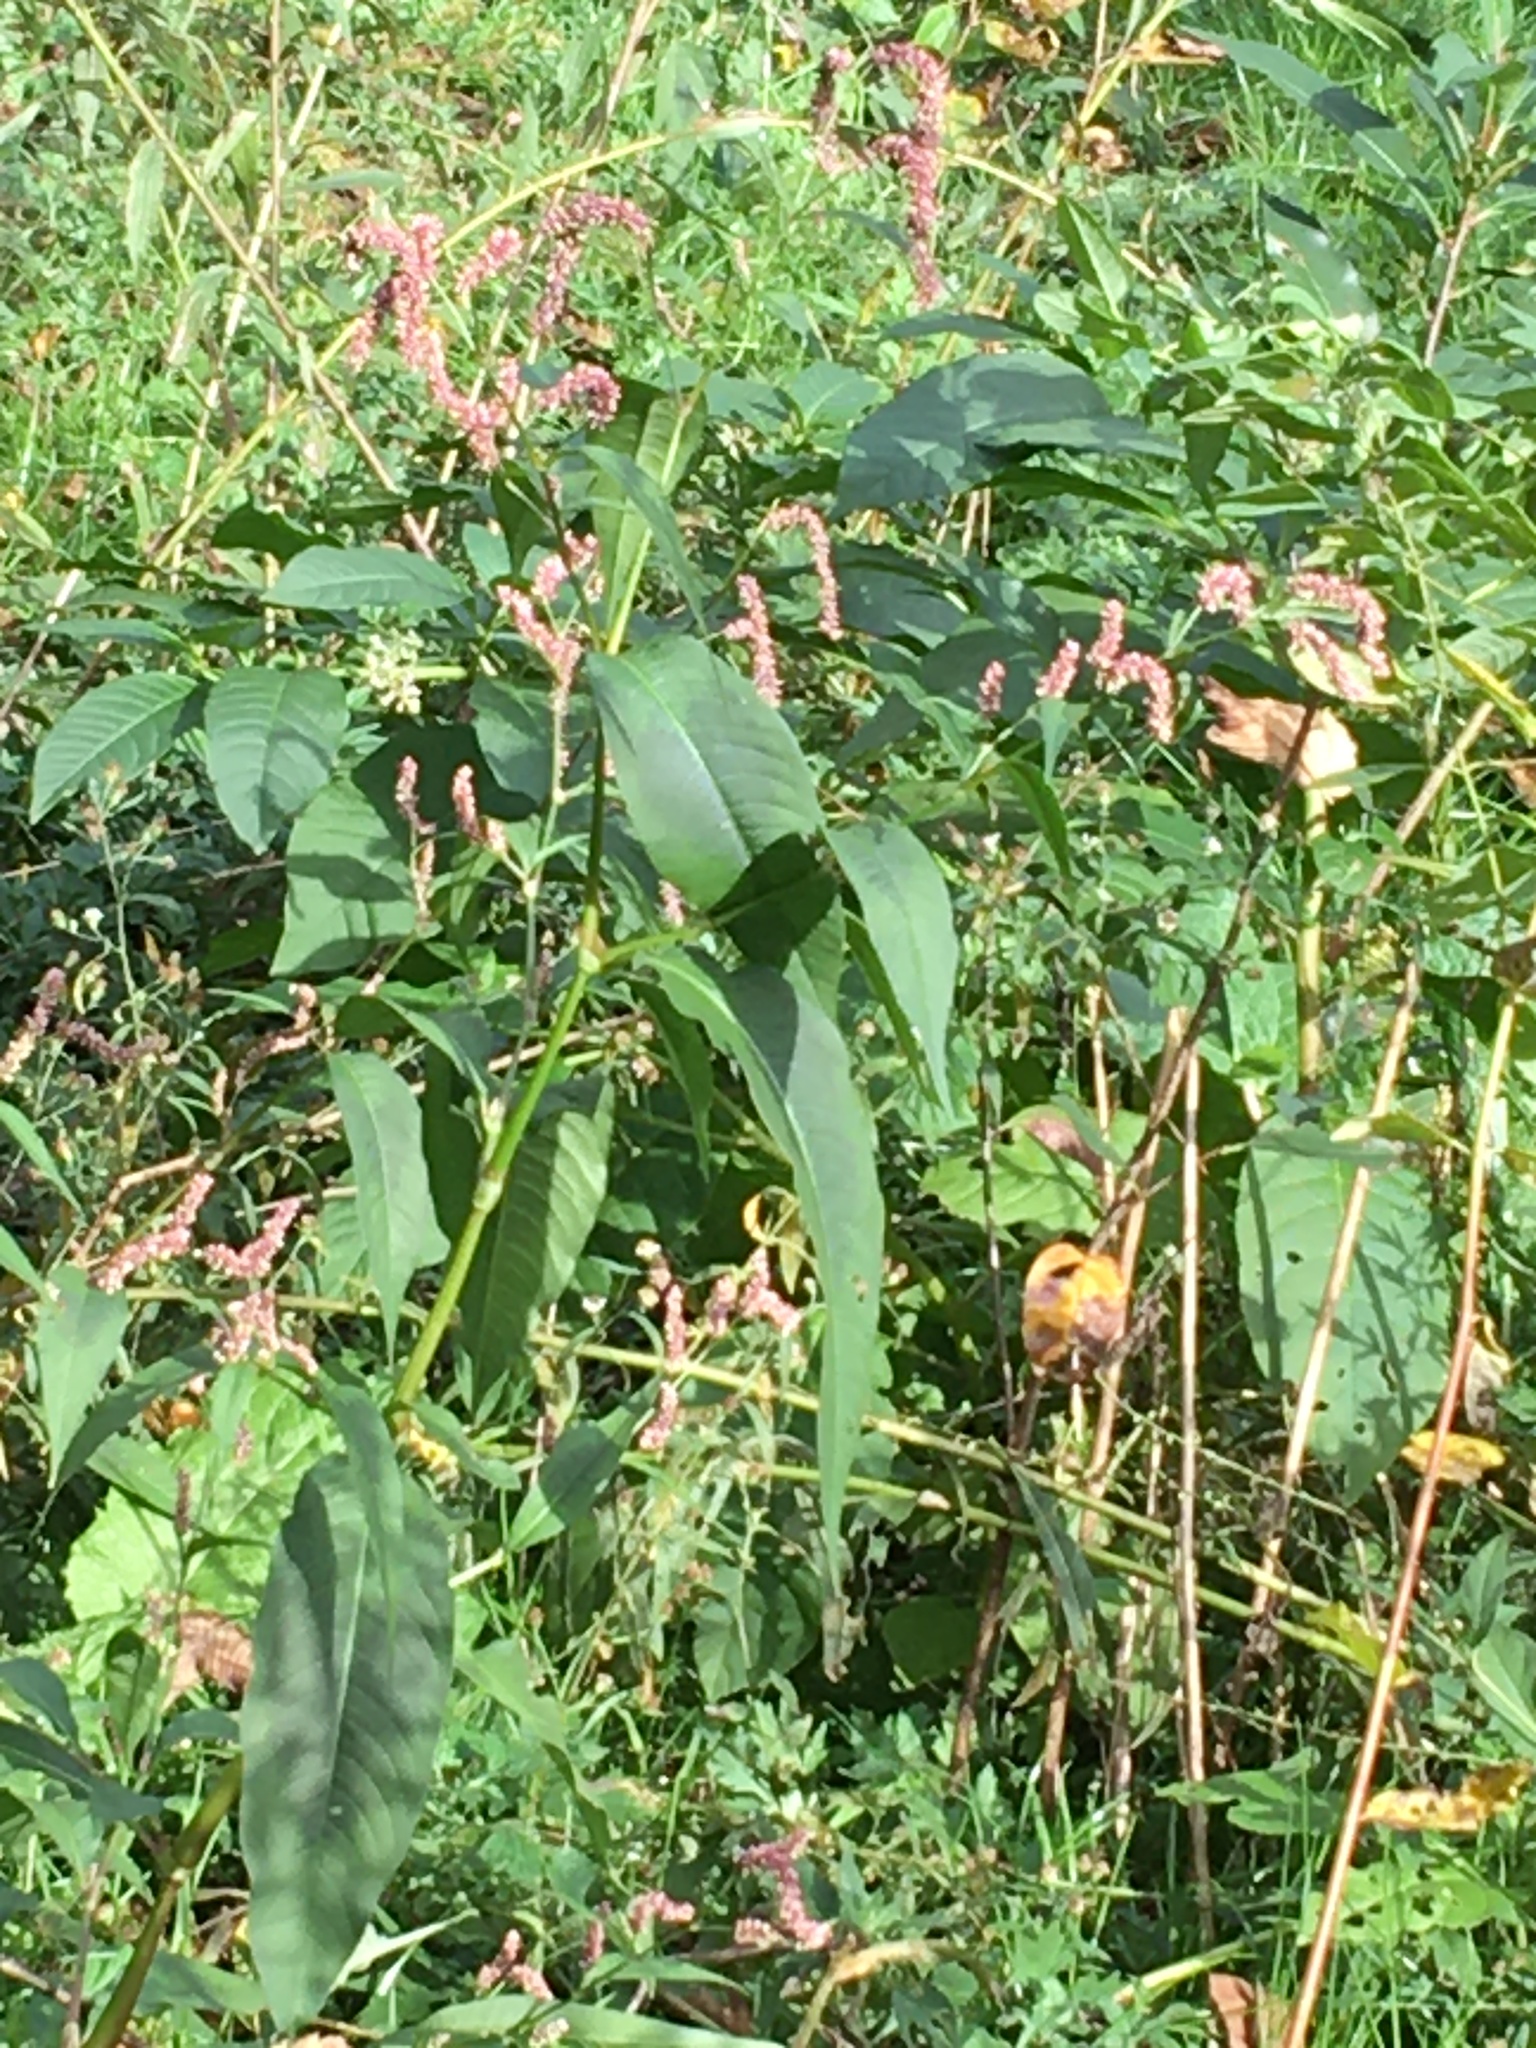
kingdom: Plantae
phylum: Tracheophyta
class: Magnoliopsida
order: Caryophyllales
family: Polygonaceae
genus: Persicaria
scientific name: Persicaria extremiorientalis
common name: Far-eastern smartweed
